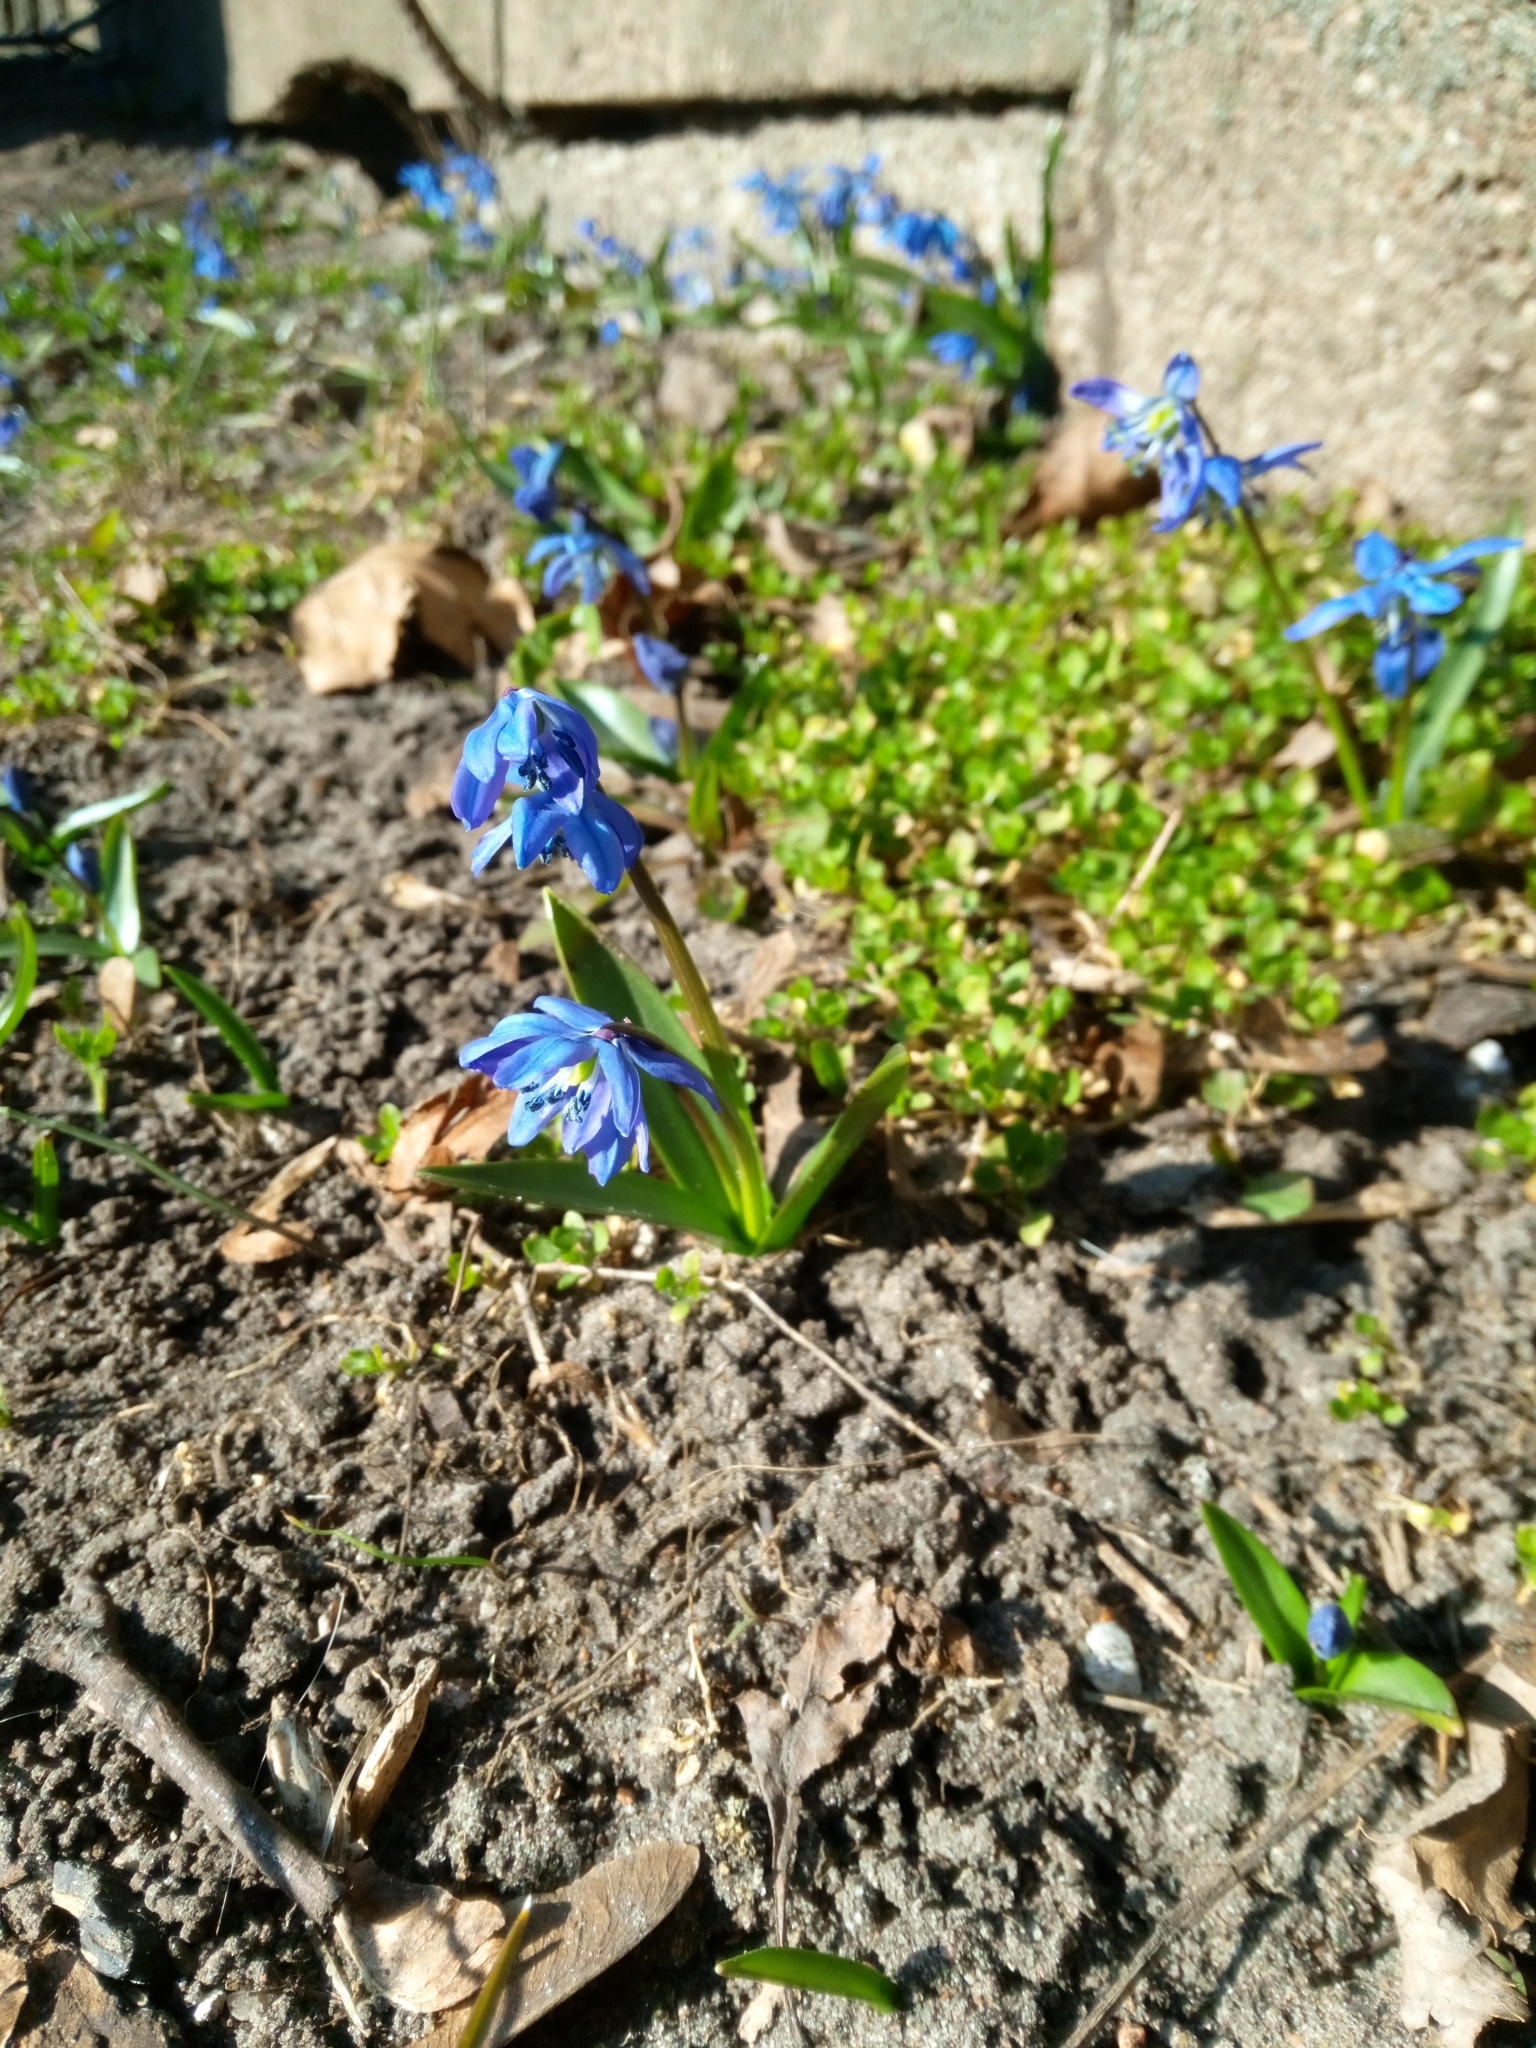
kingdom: Plantae
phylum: Tracheophyta
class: Liliopsida
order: Asparagales
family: Asparagaceae
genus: Scilla
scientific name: Scilla siberica
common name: Siberian squill
